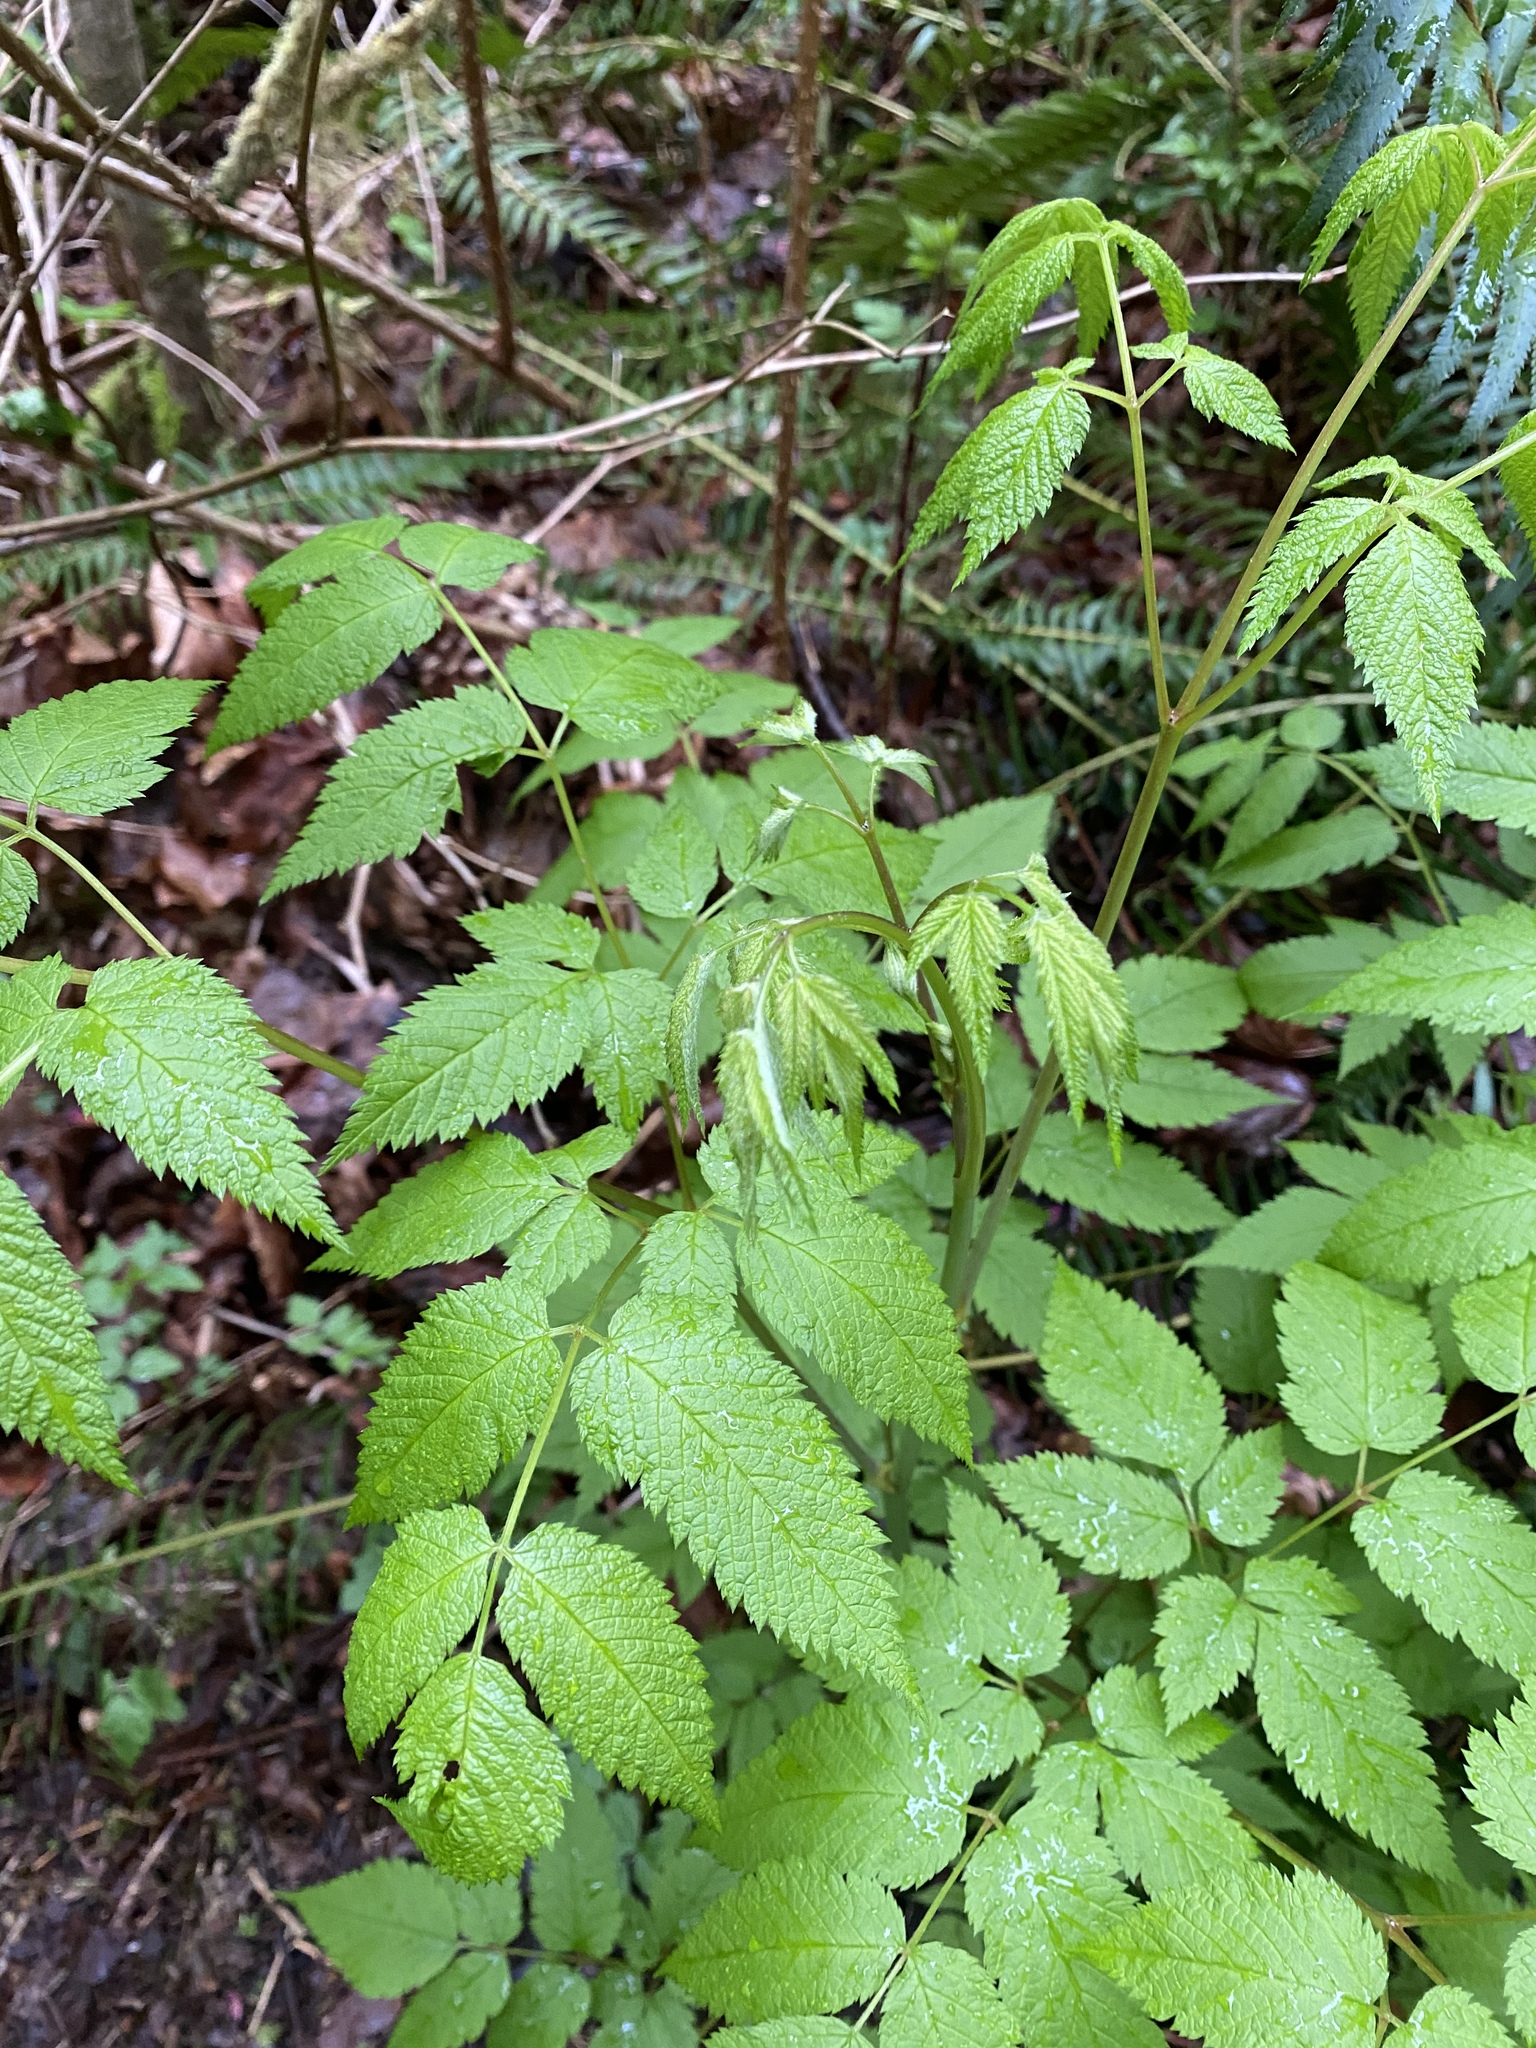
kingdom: Plantae
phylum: Tracheophyta
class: Magnoliopsida
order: Rosales
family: Rosaceae
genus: Aruncus
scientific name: Aruncus dioicus
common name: Buck's-beard
